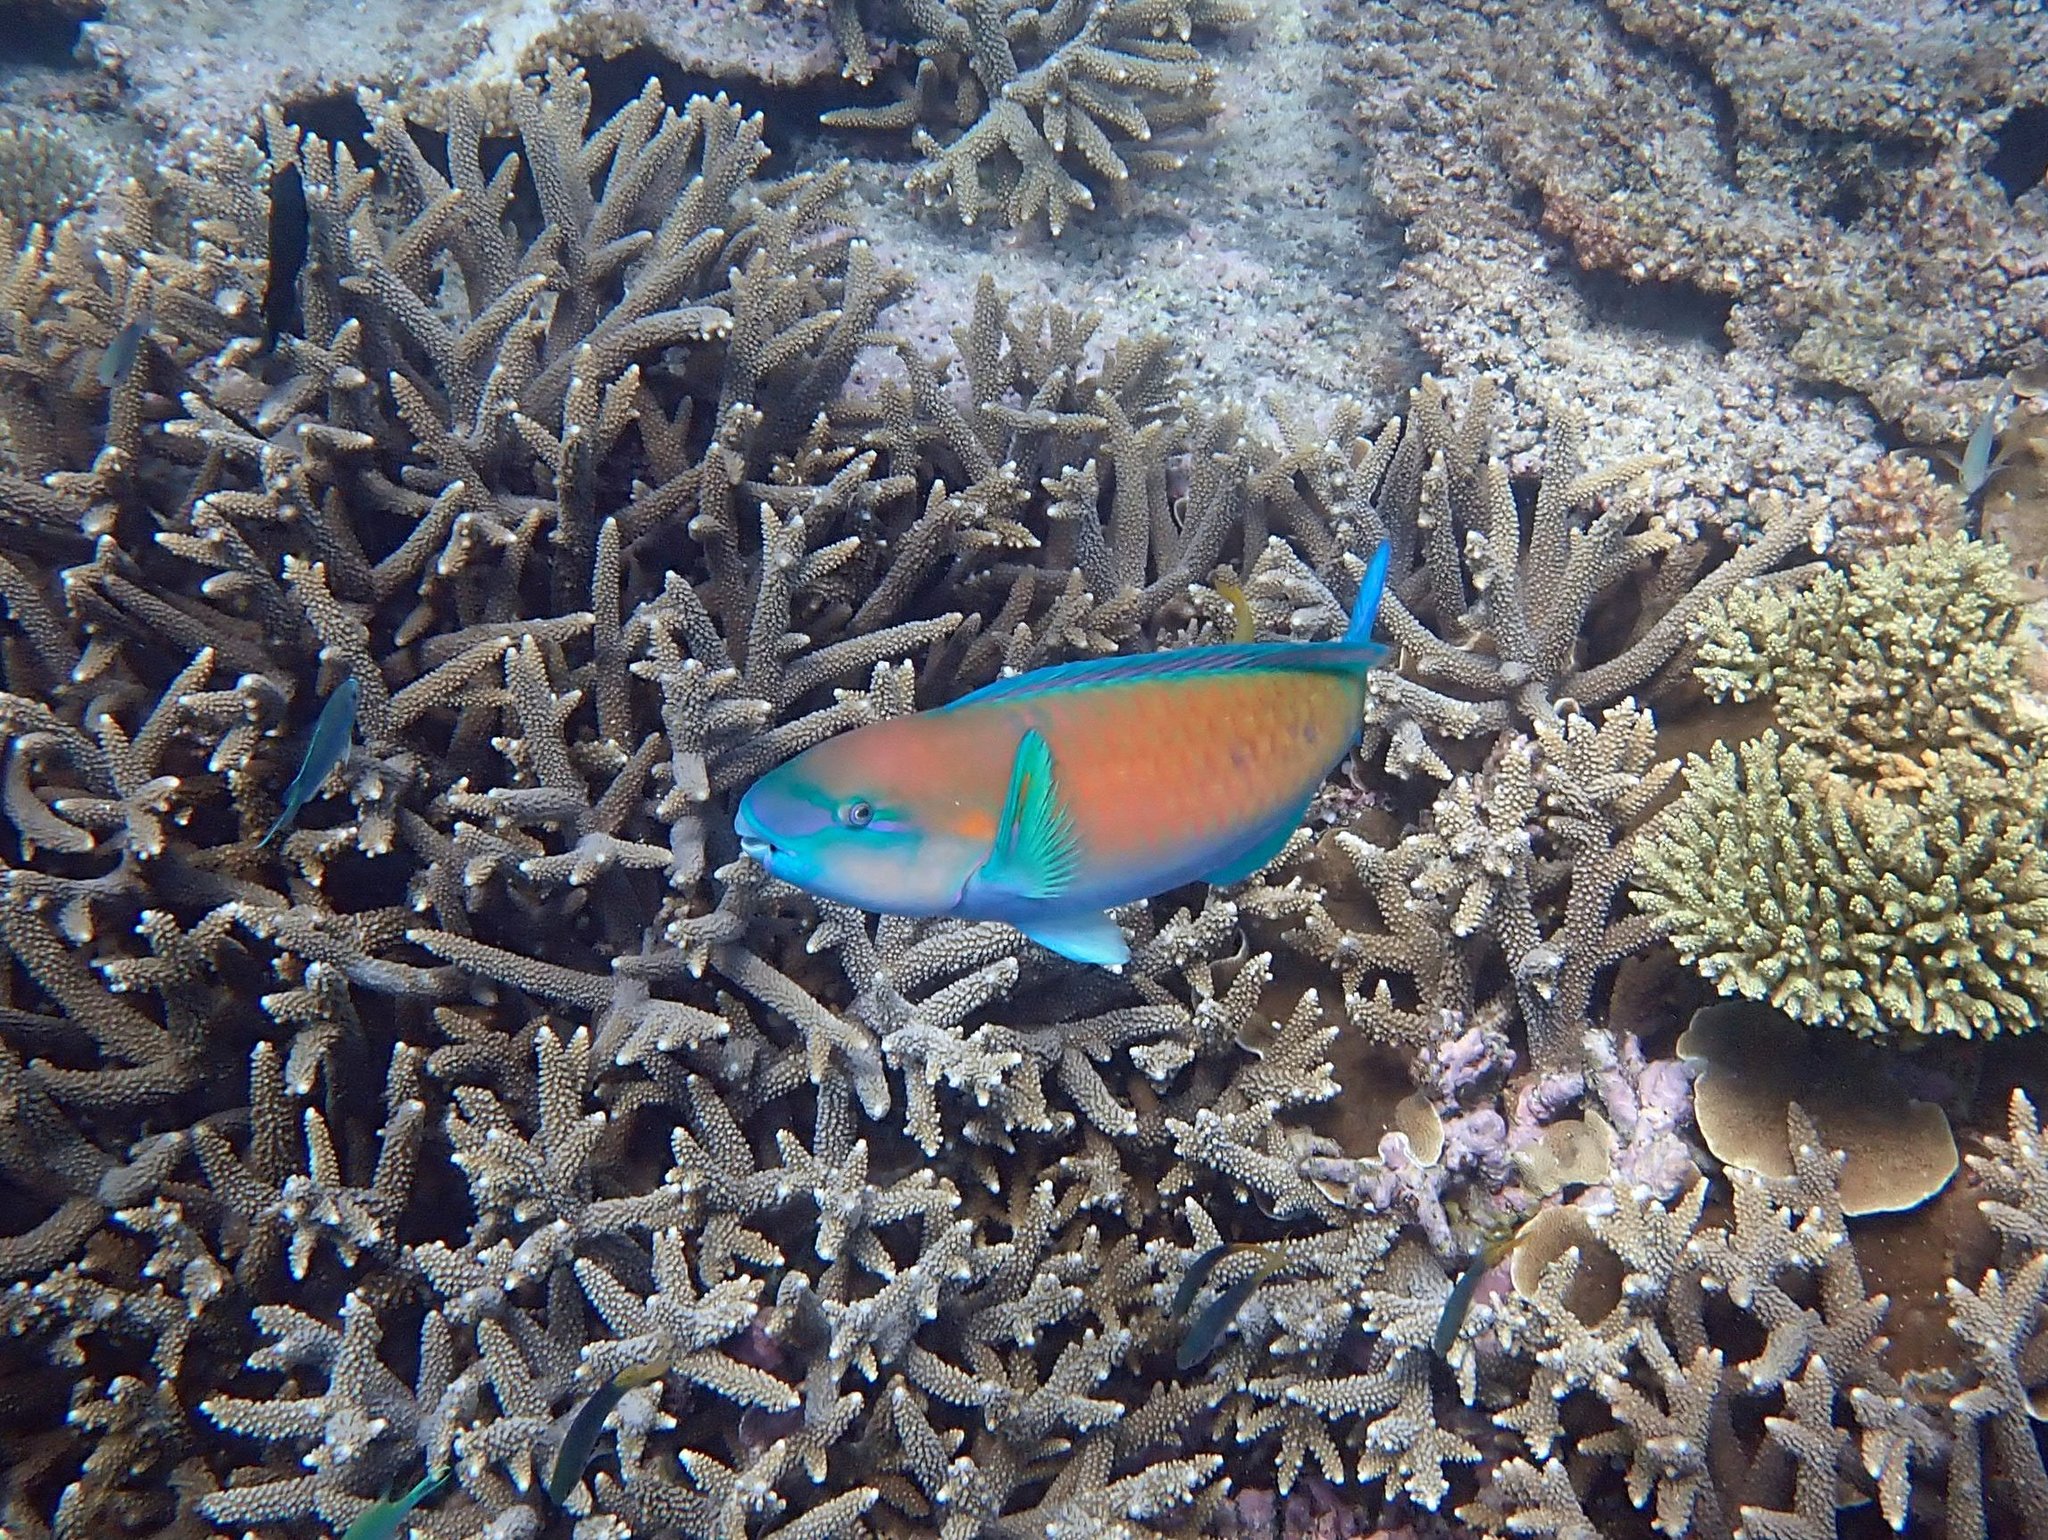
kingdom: Animalia
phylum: Chordata
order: Perciformes
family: Scaridae
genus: Chlorurus
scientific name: Chlorurus spilurus
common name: Bullethead parrotfish
